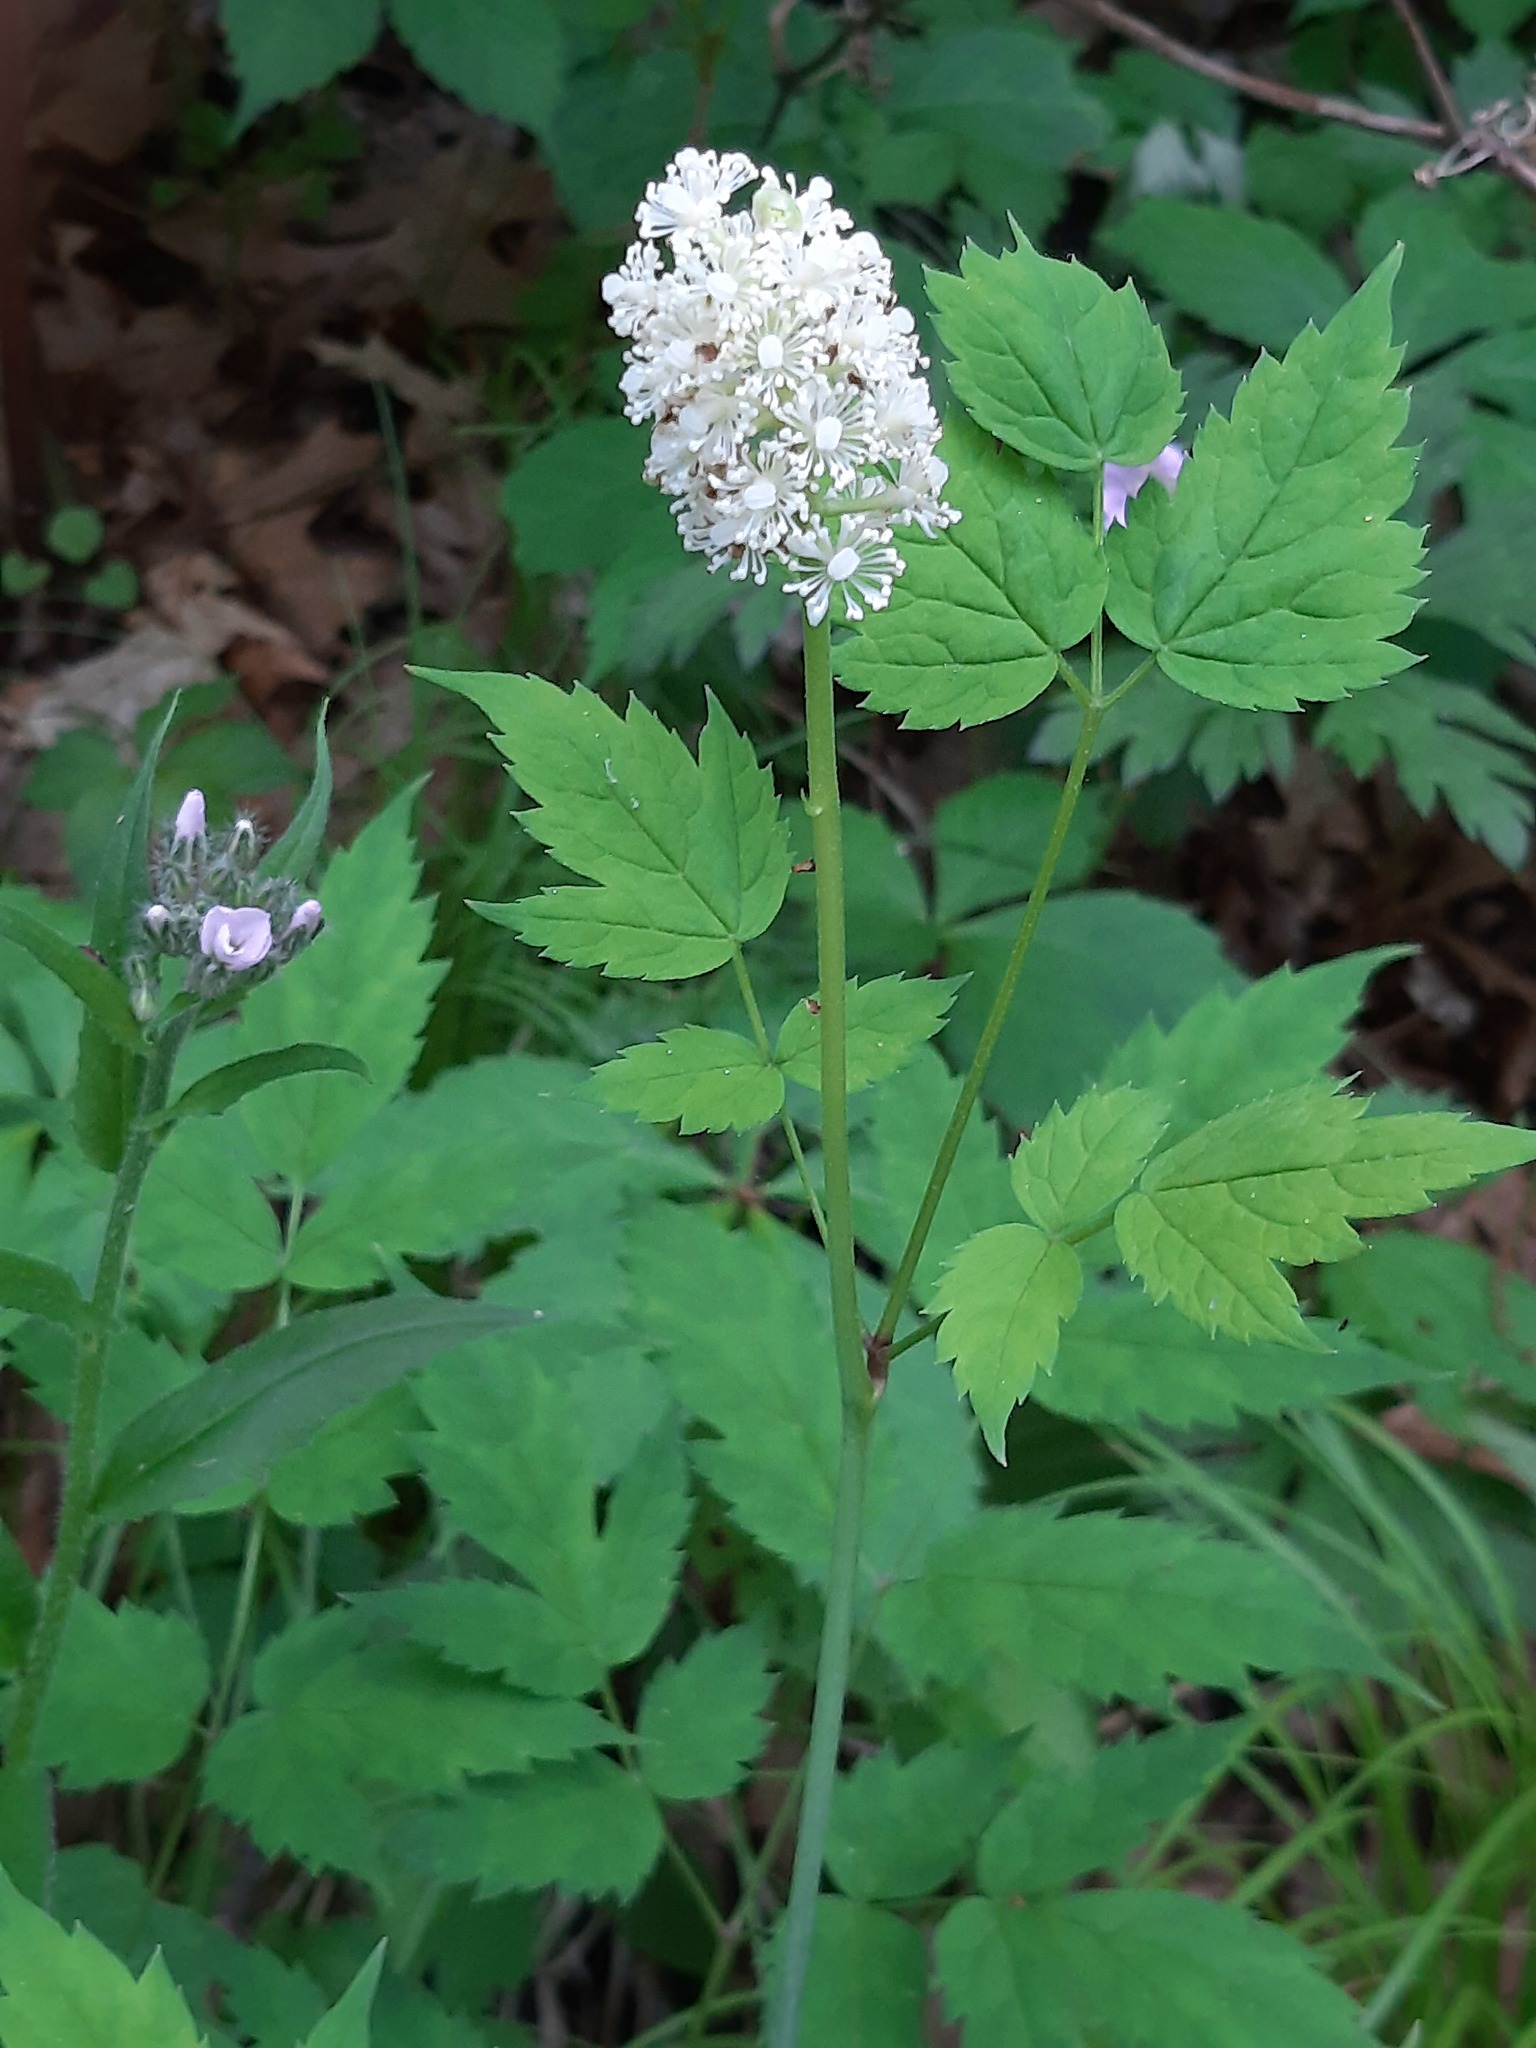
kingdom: Plantae
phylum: Tracheophyta
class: Magnoliopsida
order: Ranunculales
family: Ranunculaceae
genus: Actaea
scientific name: Actaea pachypoda
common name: Doll's-eyes
